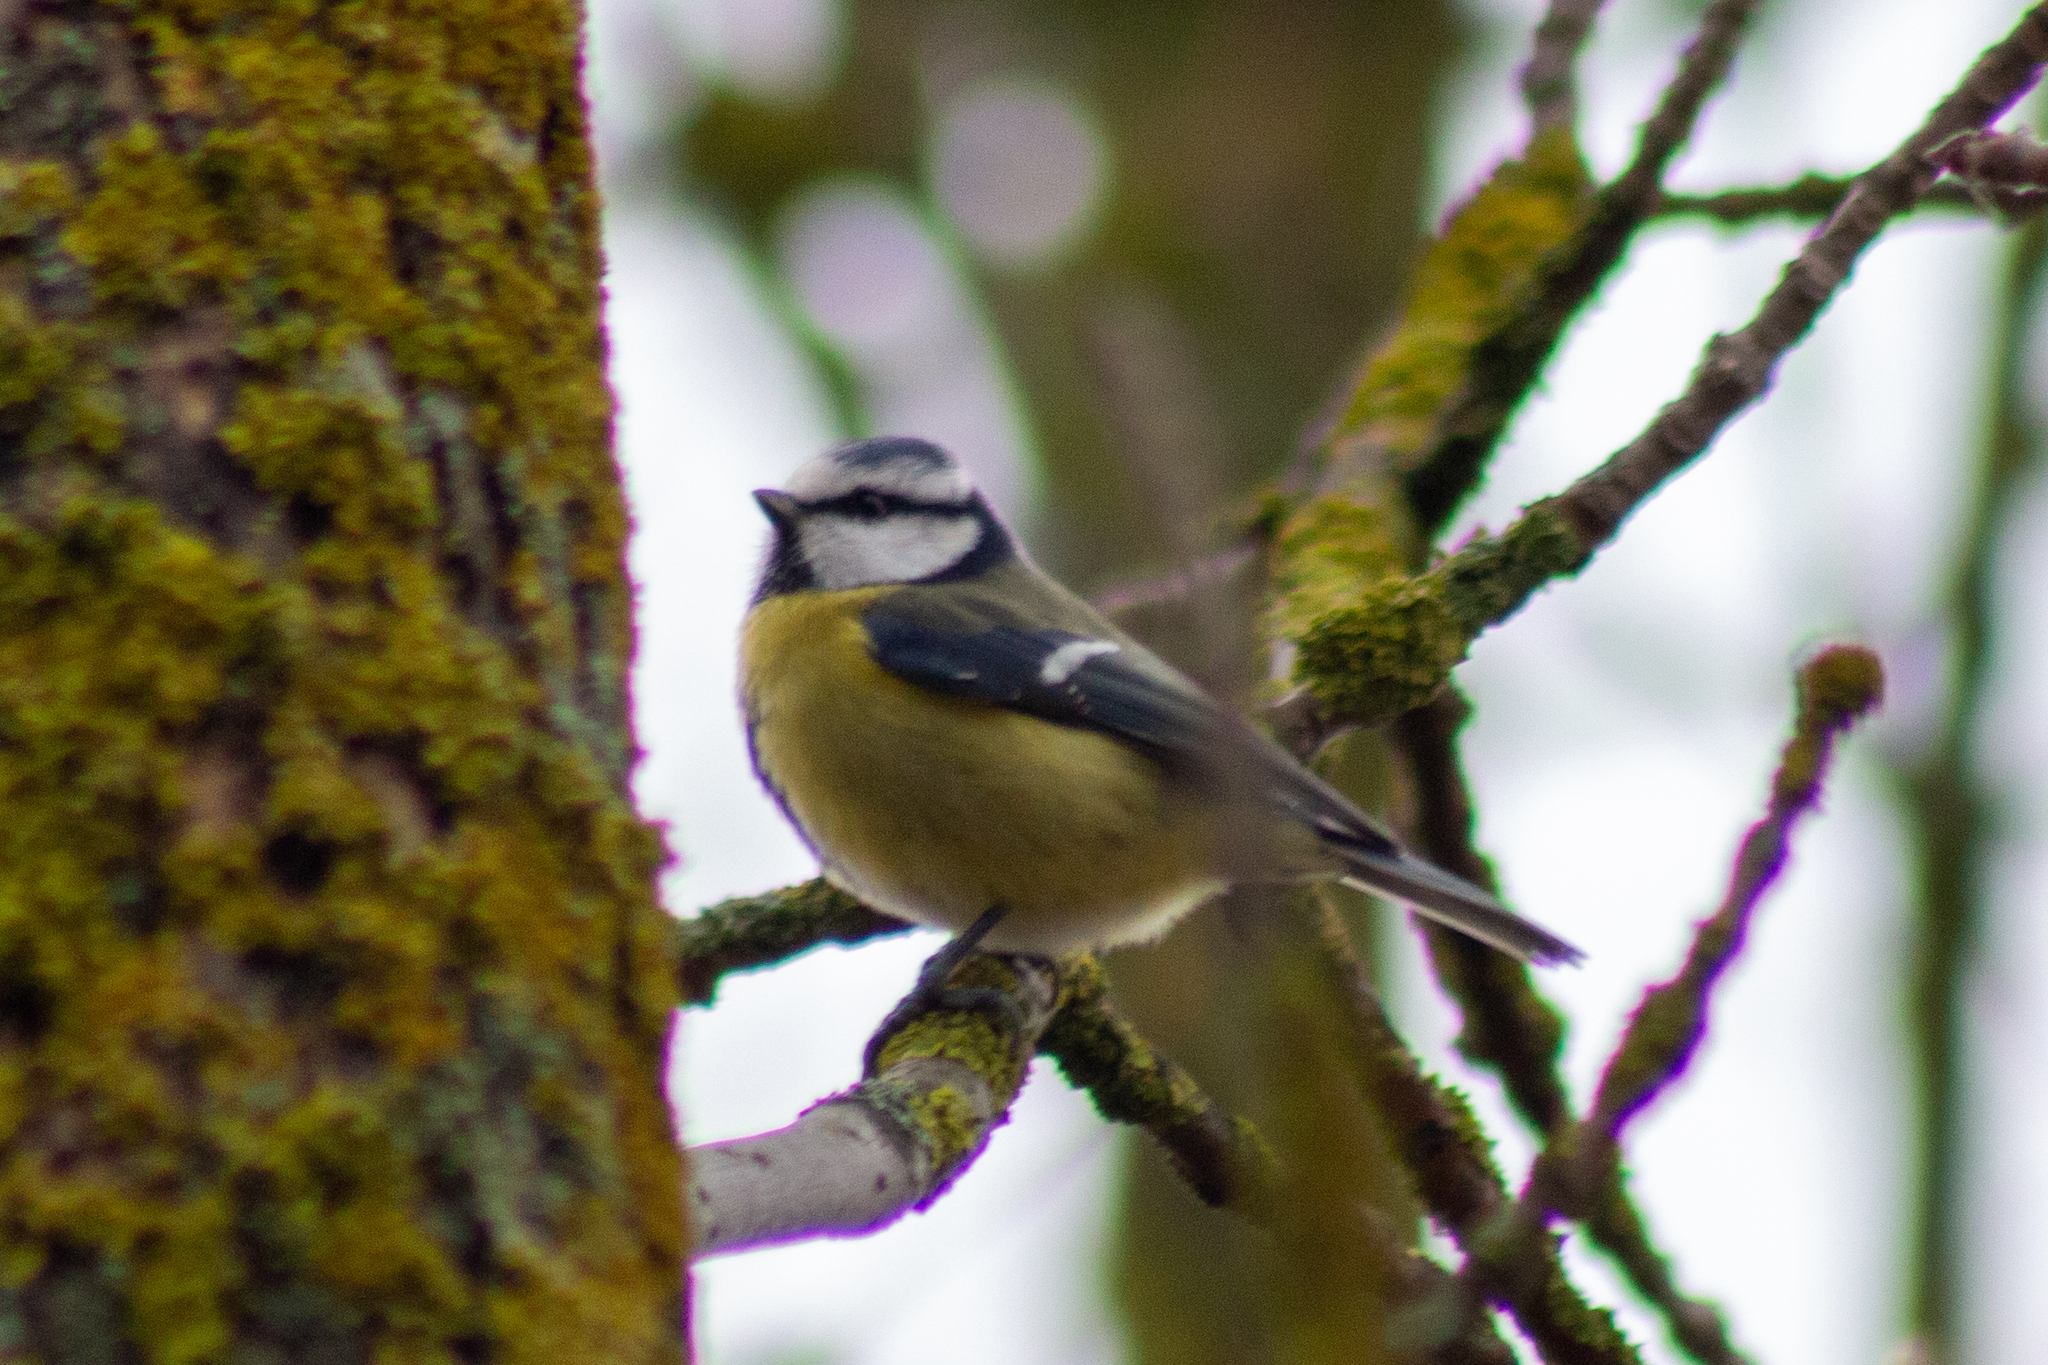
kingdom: Animalia
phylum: Chordata
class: Aves
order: Passeriformes
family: Paridae
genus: Cyanistes
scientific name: Cyanistes caeruleus
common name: Eurasian blue tit
